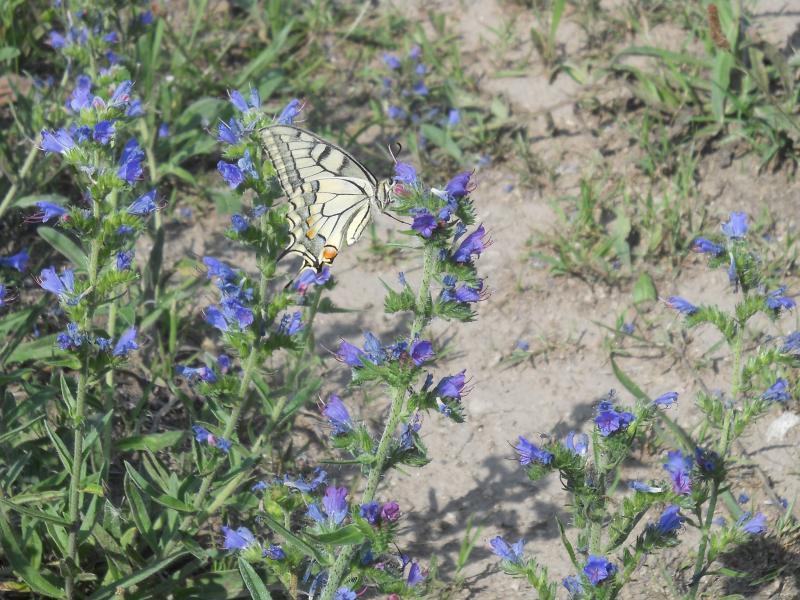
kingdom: Plantae
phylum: Tracheophyta
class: Magnoliopsida
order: Boraginales
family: Boraginaceae
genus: Echium
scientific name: Echium vulgare
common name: Common viper's bugloss
